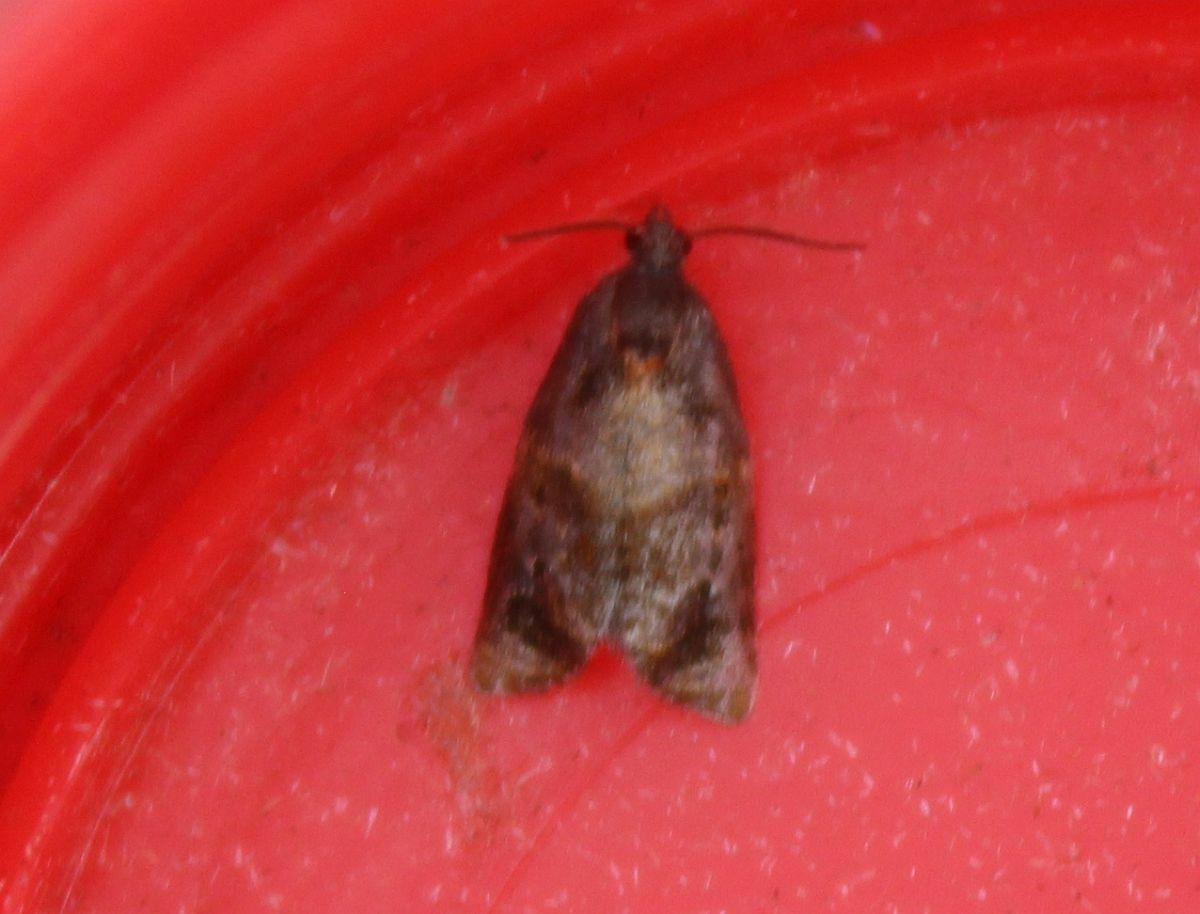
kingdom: Animalia
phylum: Arthropoda
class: Insecta
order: Lepidoptera
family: Tortricidae
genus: Ditula
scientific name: Ditula angustiorana
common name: Red-barred tortrix
